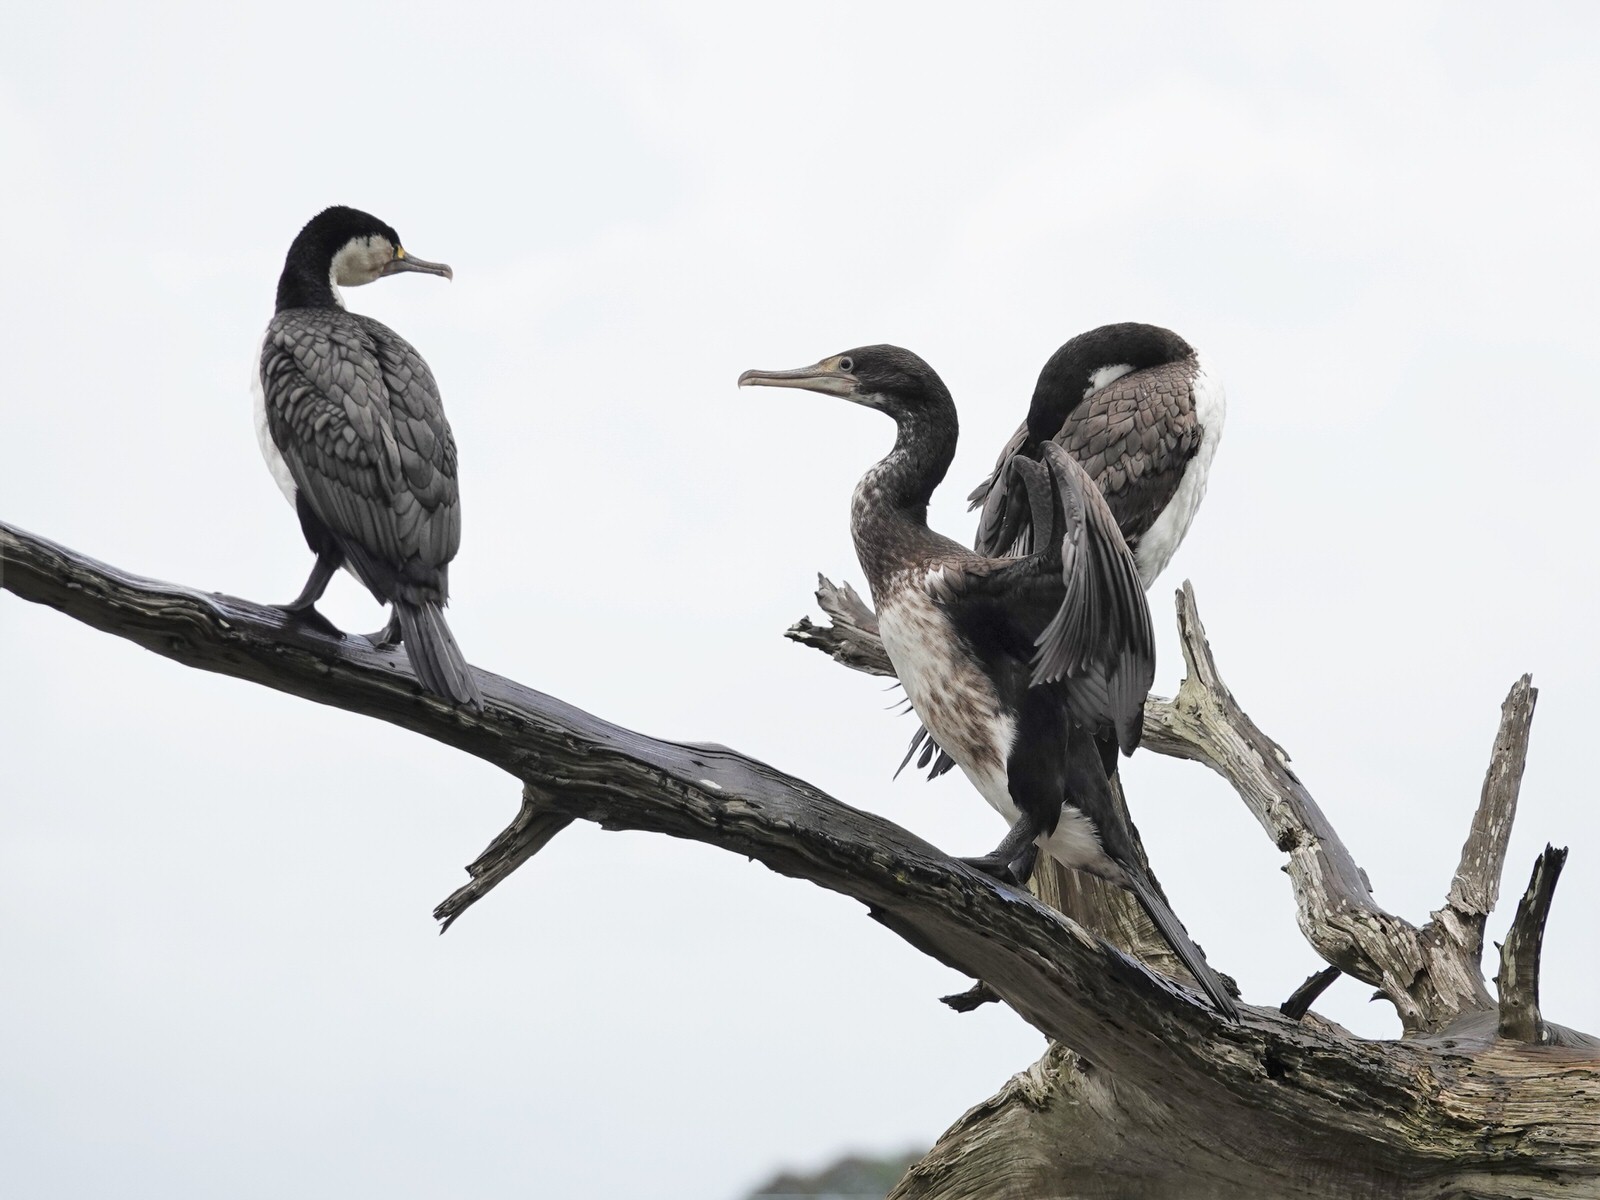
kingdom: Animalia
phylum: Chordata
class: Aves
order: Suliformes
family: Phalacrocoracidae
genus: Phalacrocorax
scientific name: Phalacrocorax varius
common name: Pied cormorant
